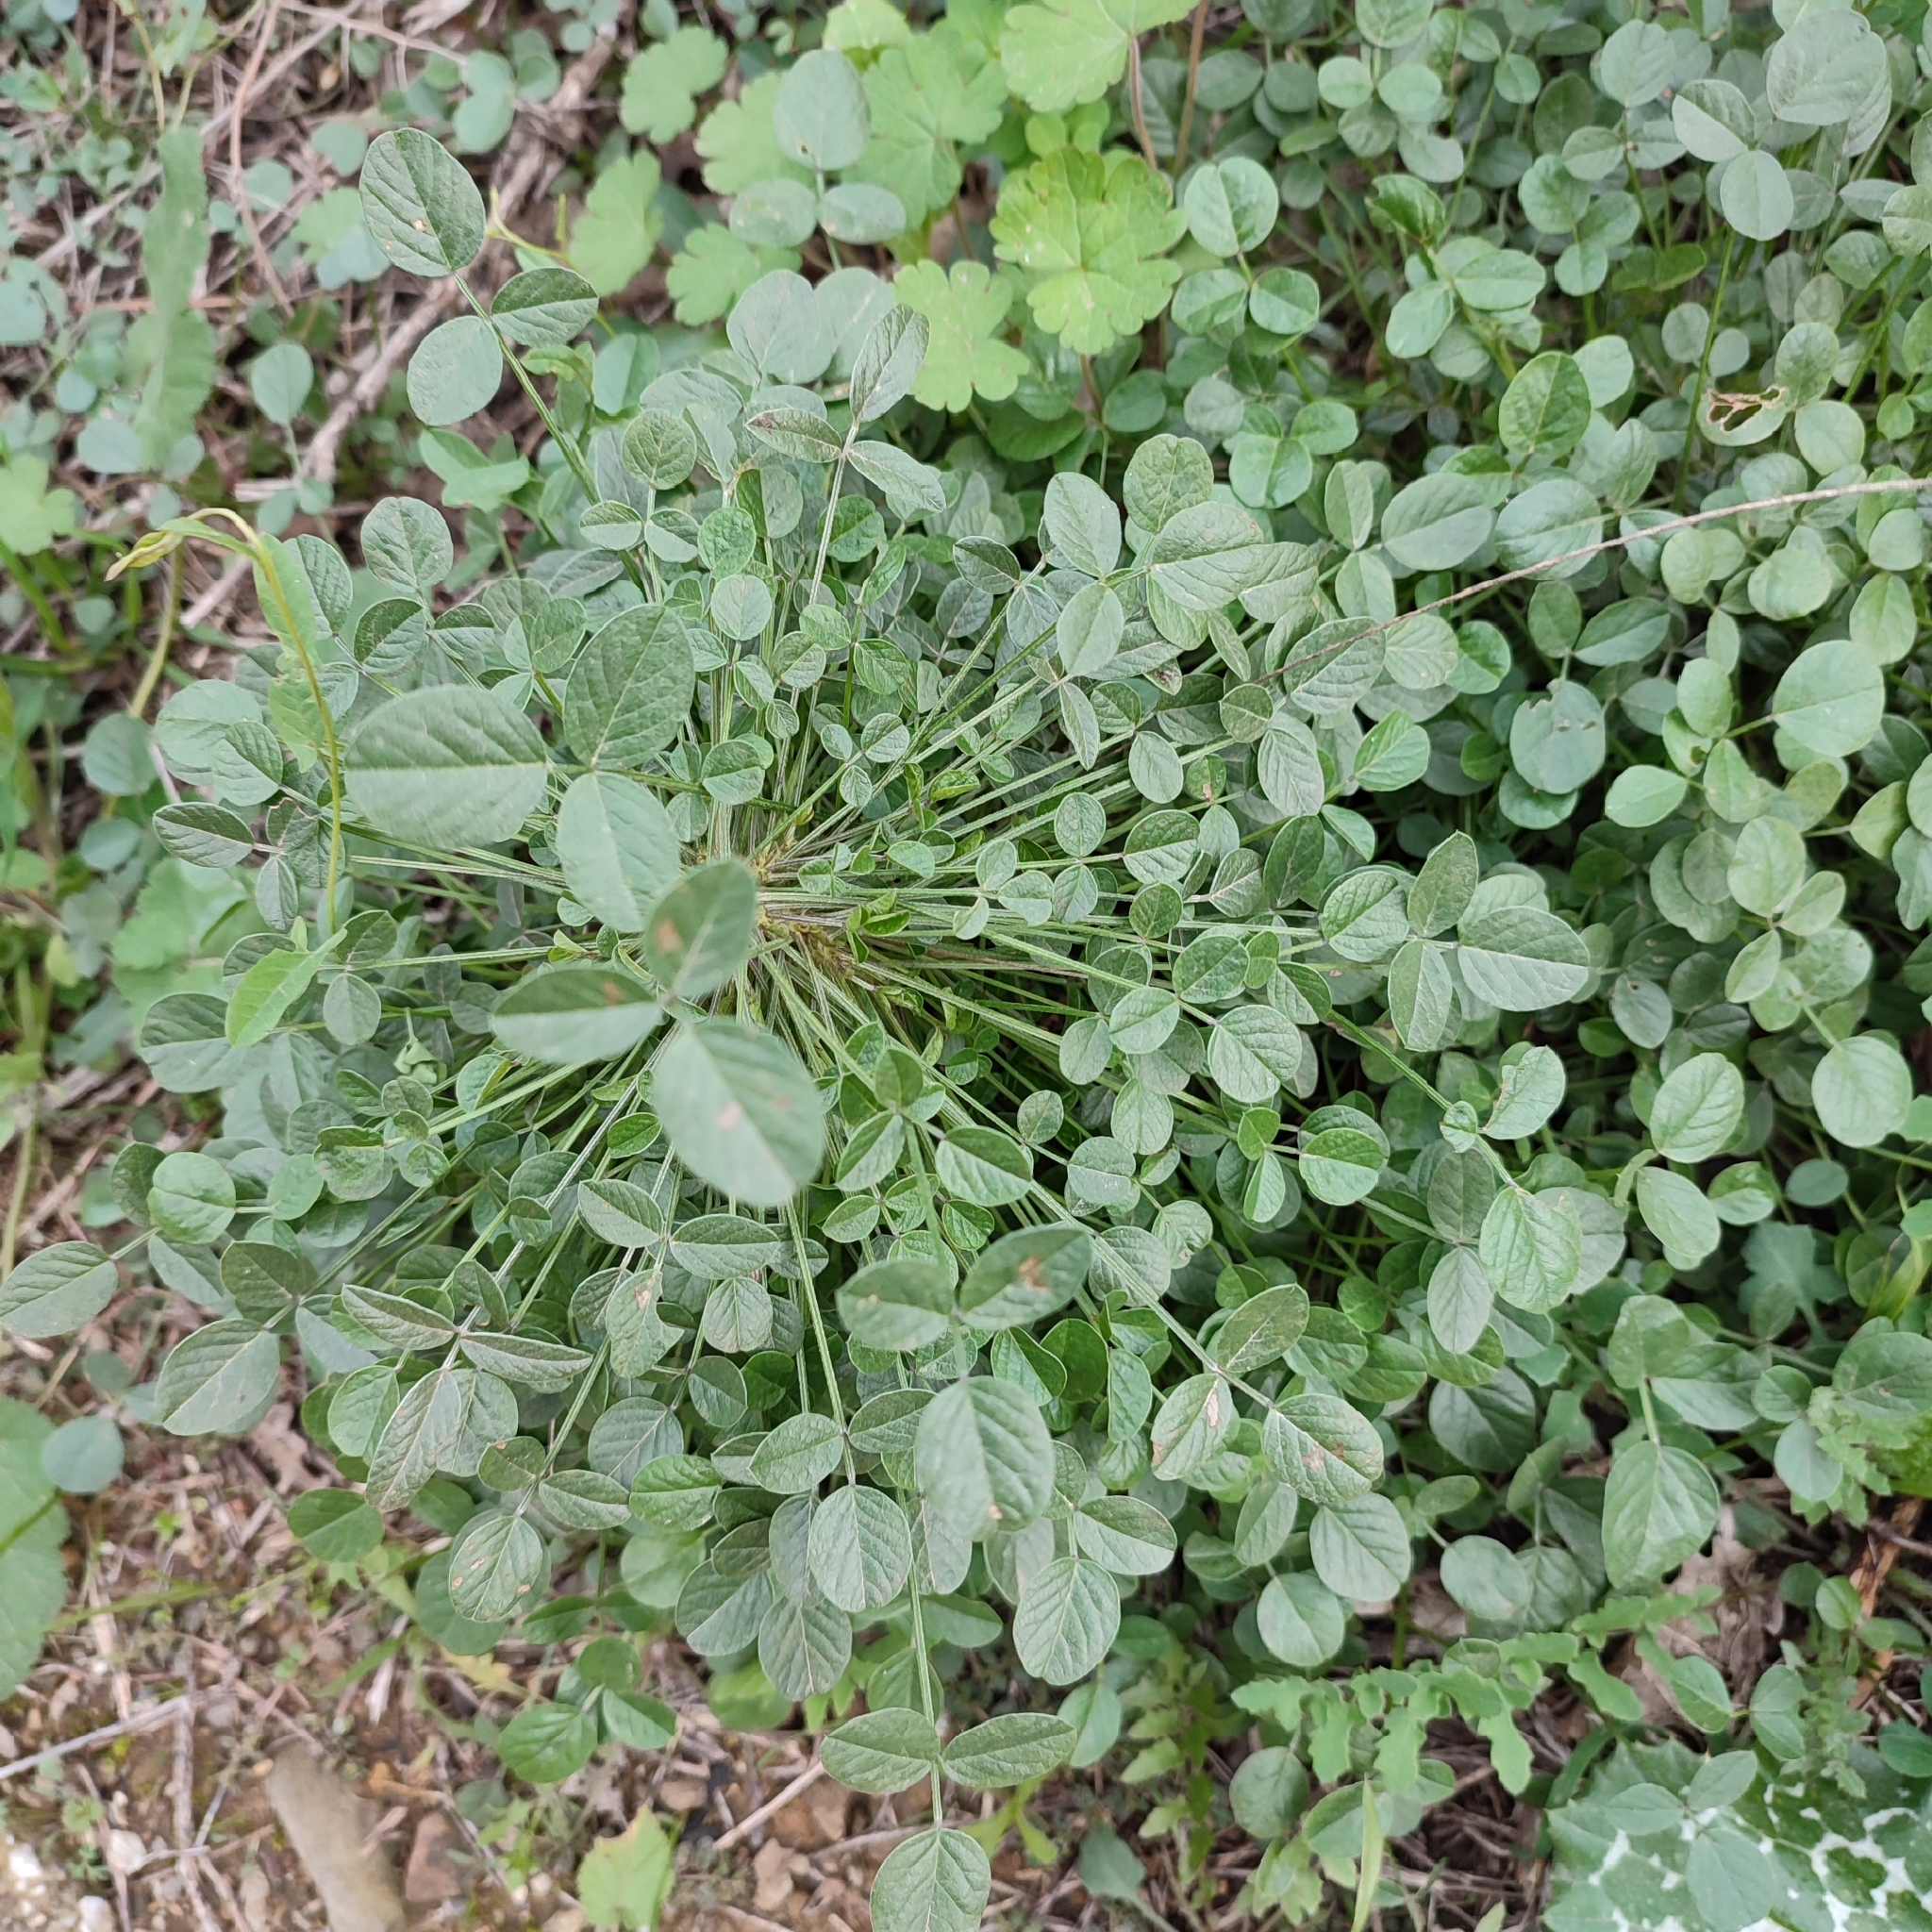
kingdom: Plantae
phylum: Tracheophyta
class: Magnoliopsida
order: Fabales
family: Fabaceae
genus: Bituminaria
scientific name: Bituminaria bituminosa
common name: Arabian pea
